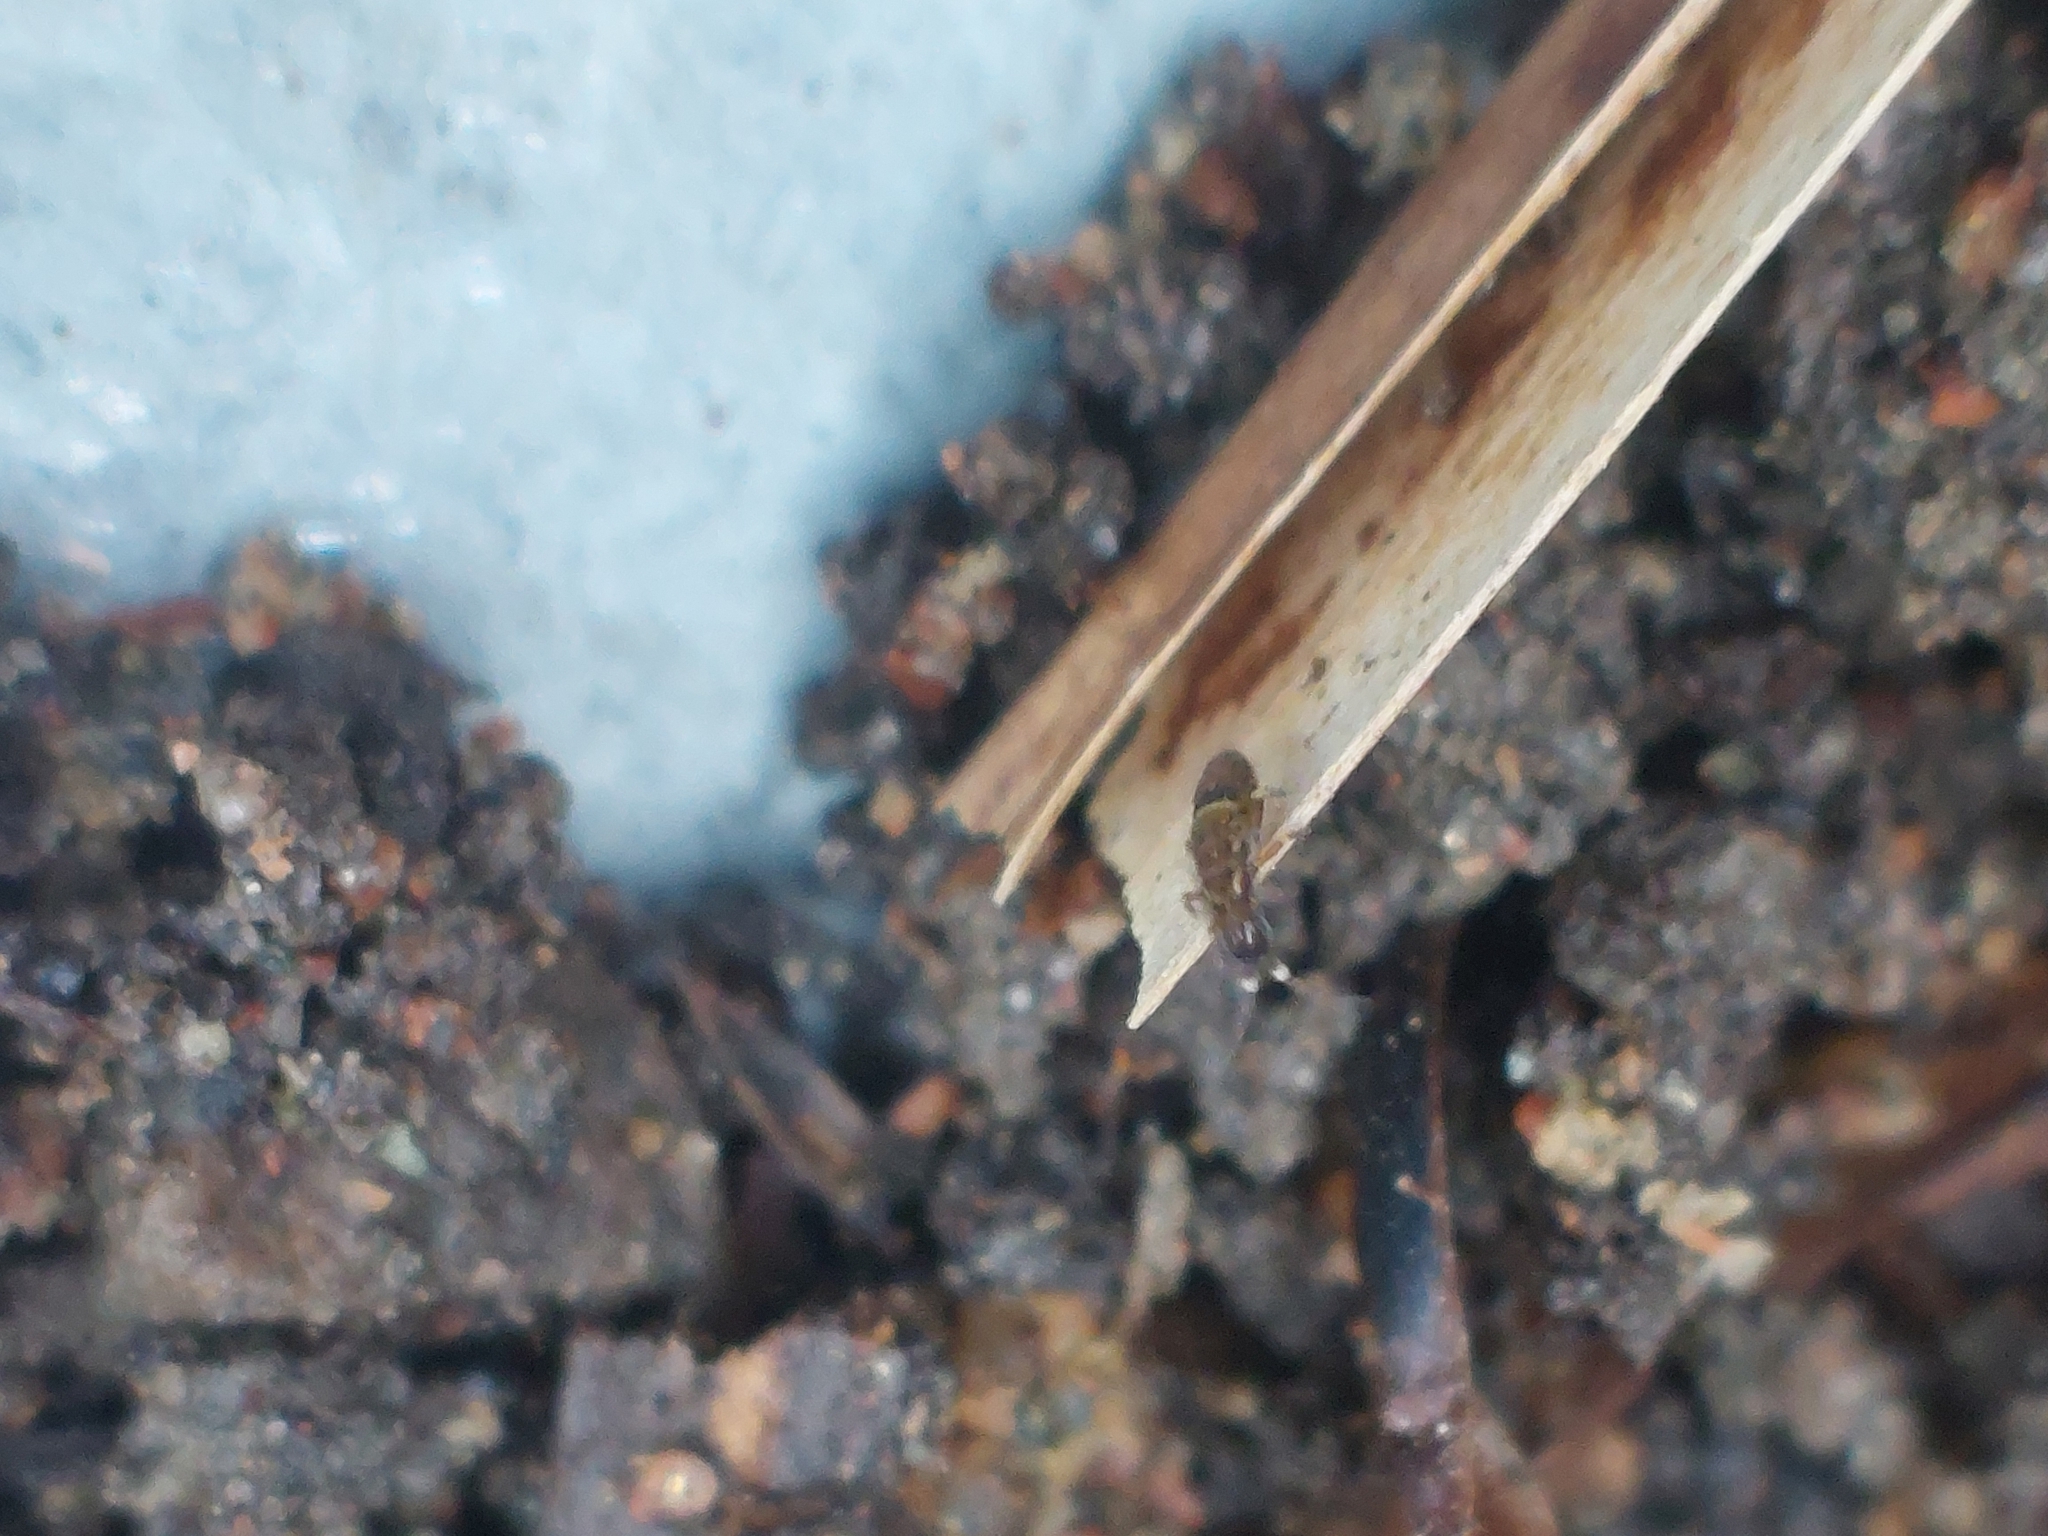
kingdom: Animalia
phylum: Arthropoda
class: Collembola
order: Entomobryomorpha
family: Orchesellidae
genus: Orchesella
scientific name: Orchesella cincta
